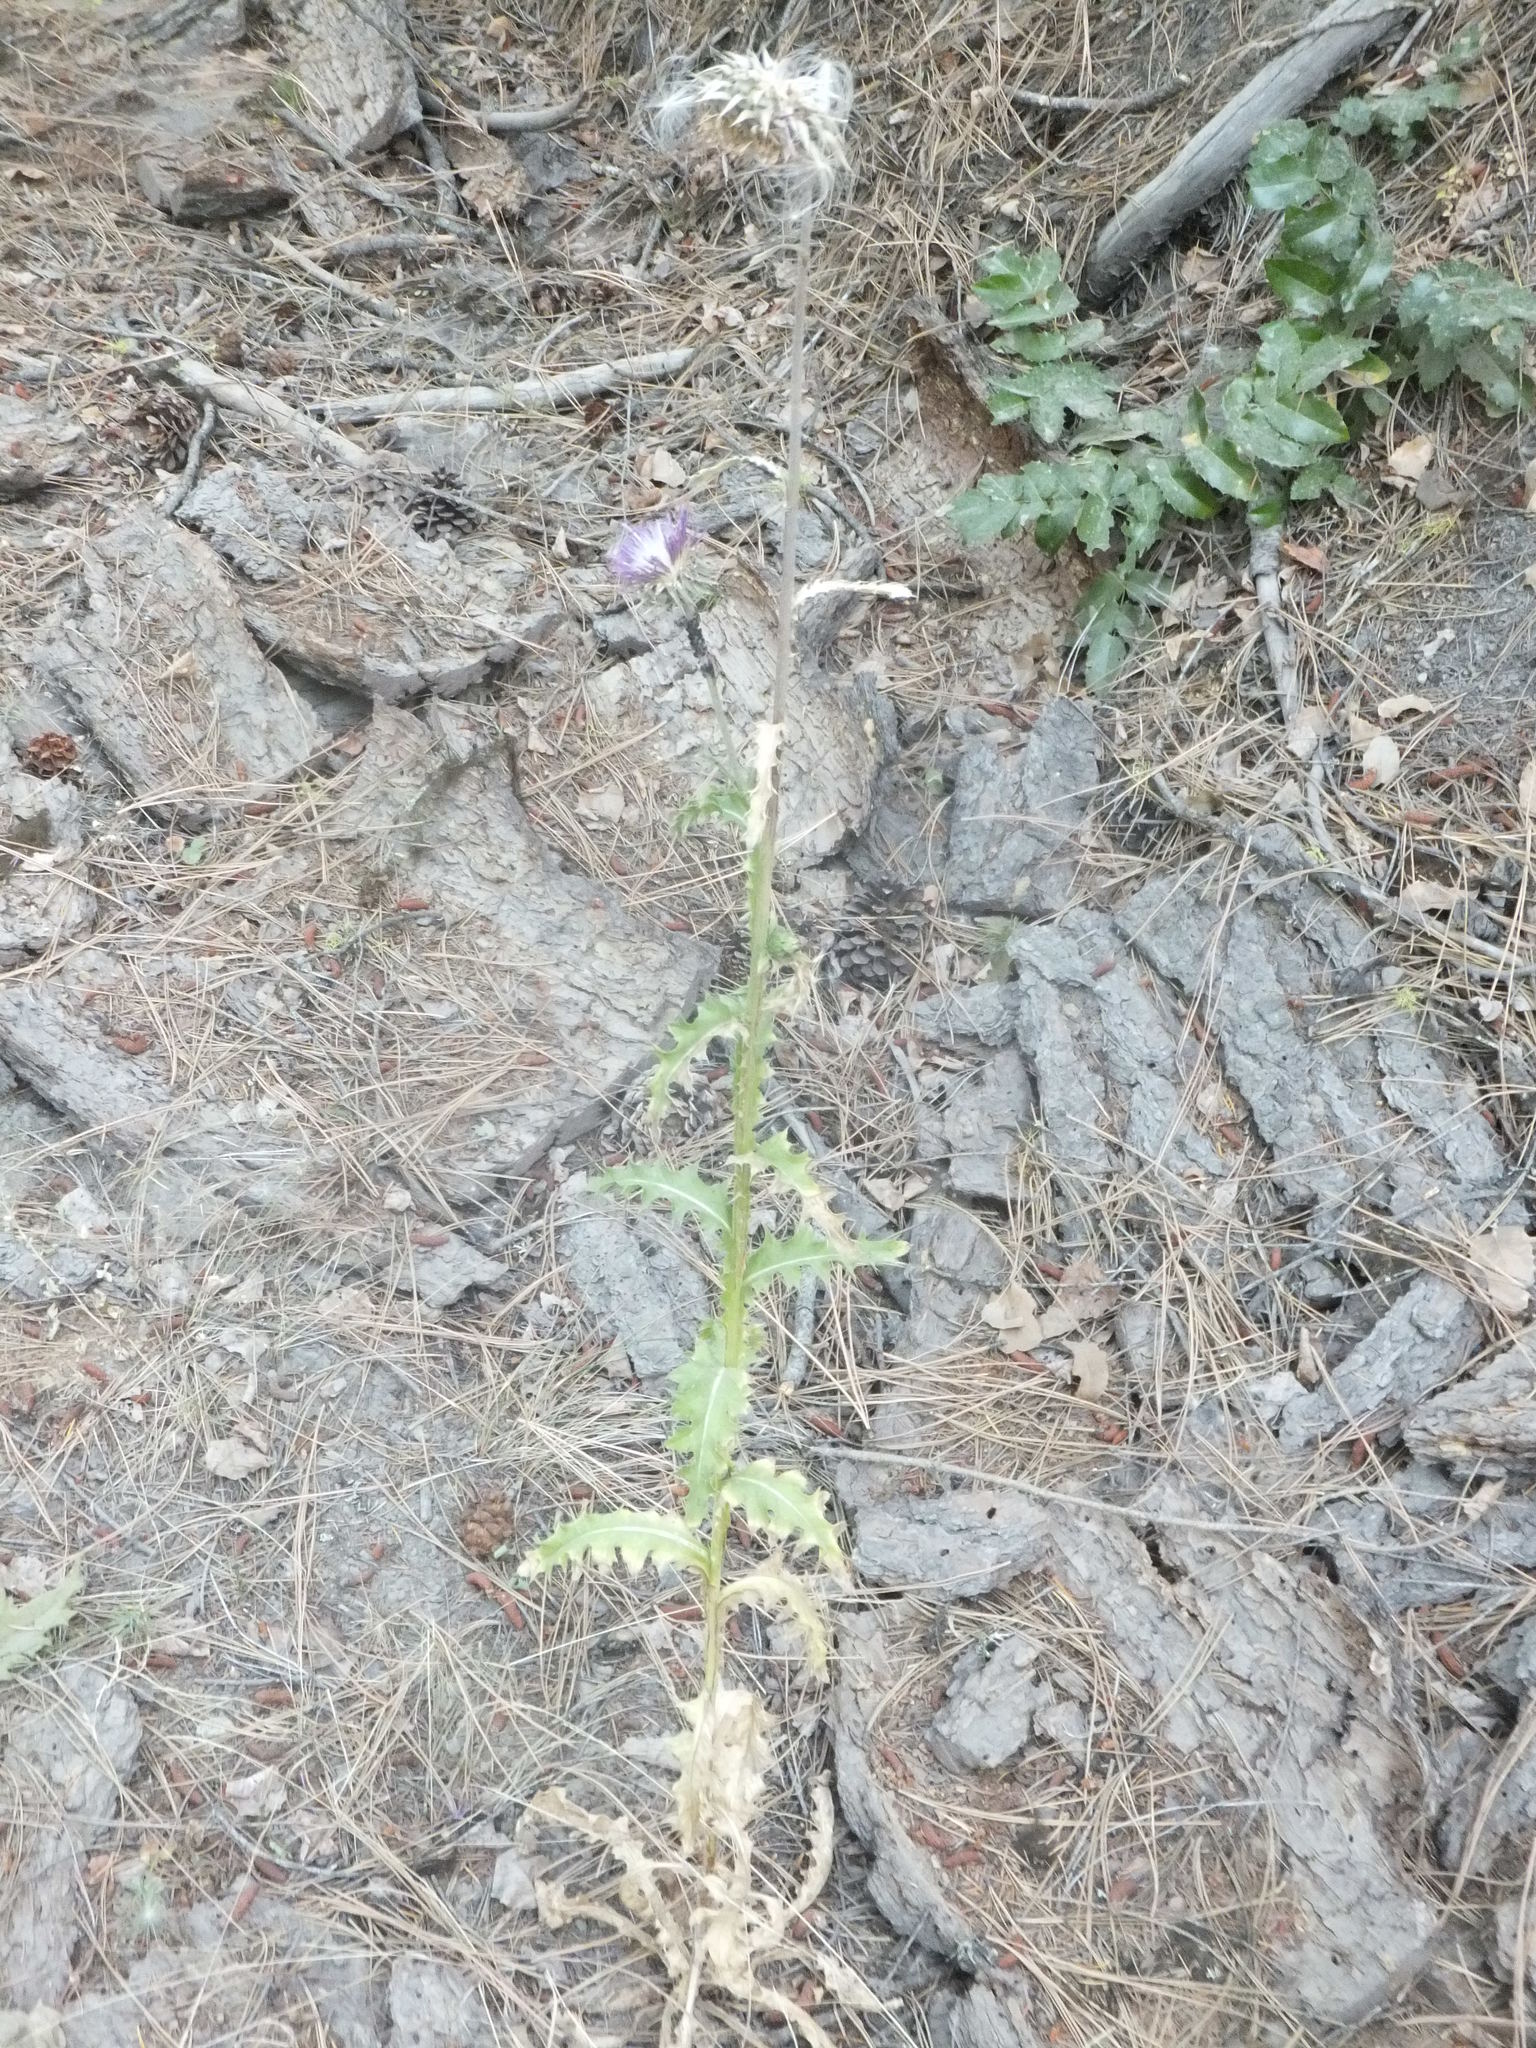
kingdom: Plantae
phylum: Tracheophyta
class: Magnoliopsida
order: Asterales
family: Asteraceae
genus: Carduus
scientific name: Carduus nutans
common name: Musk thistle
